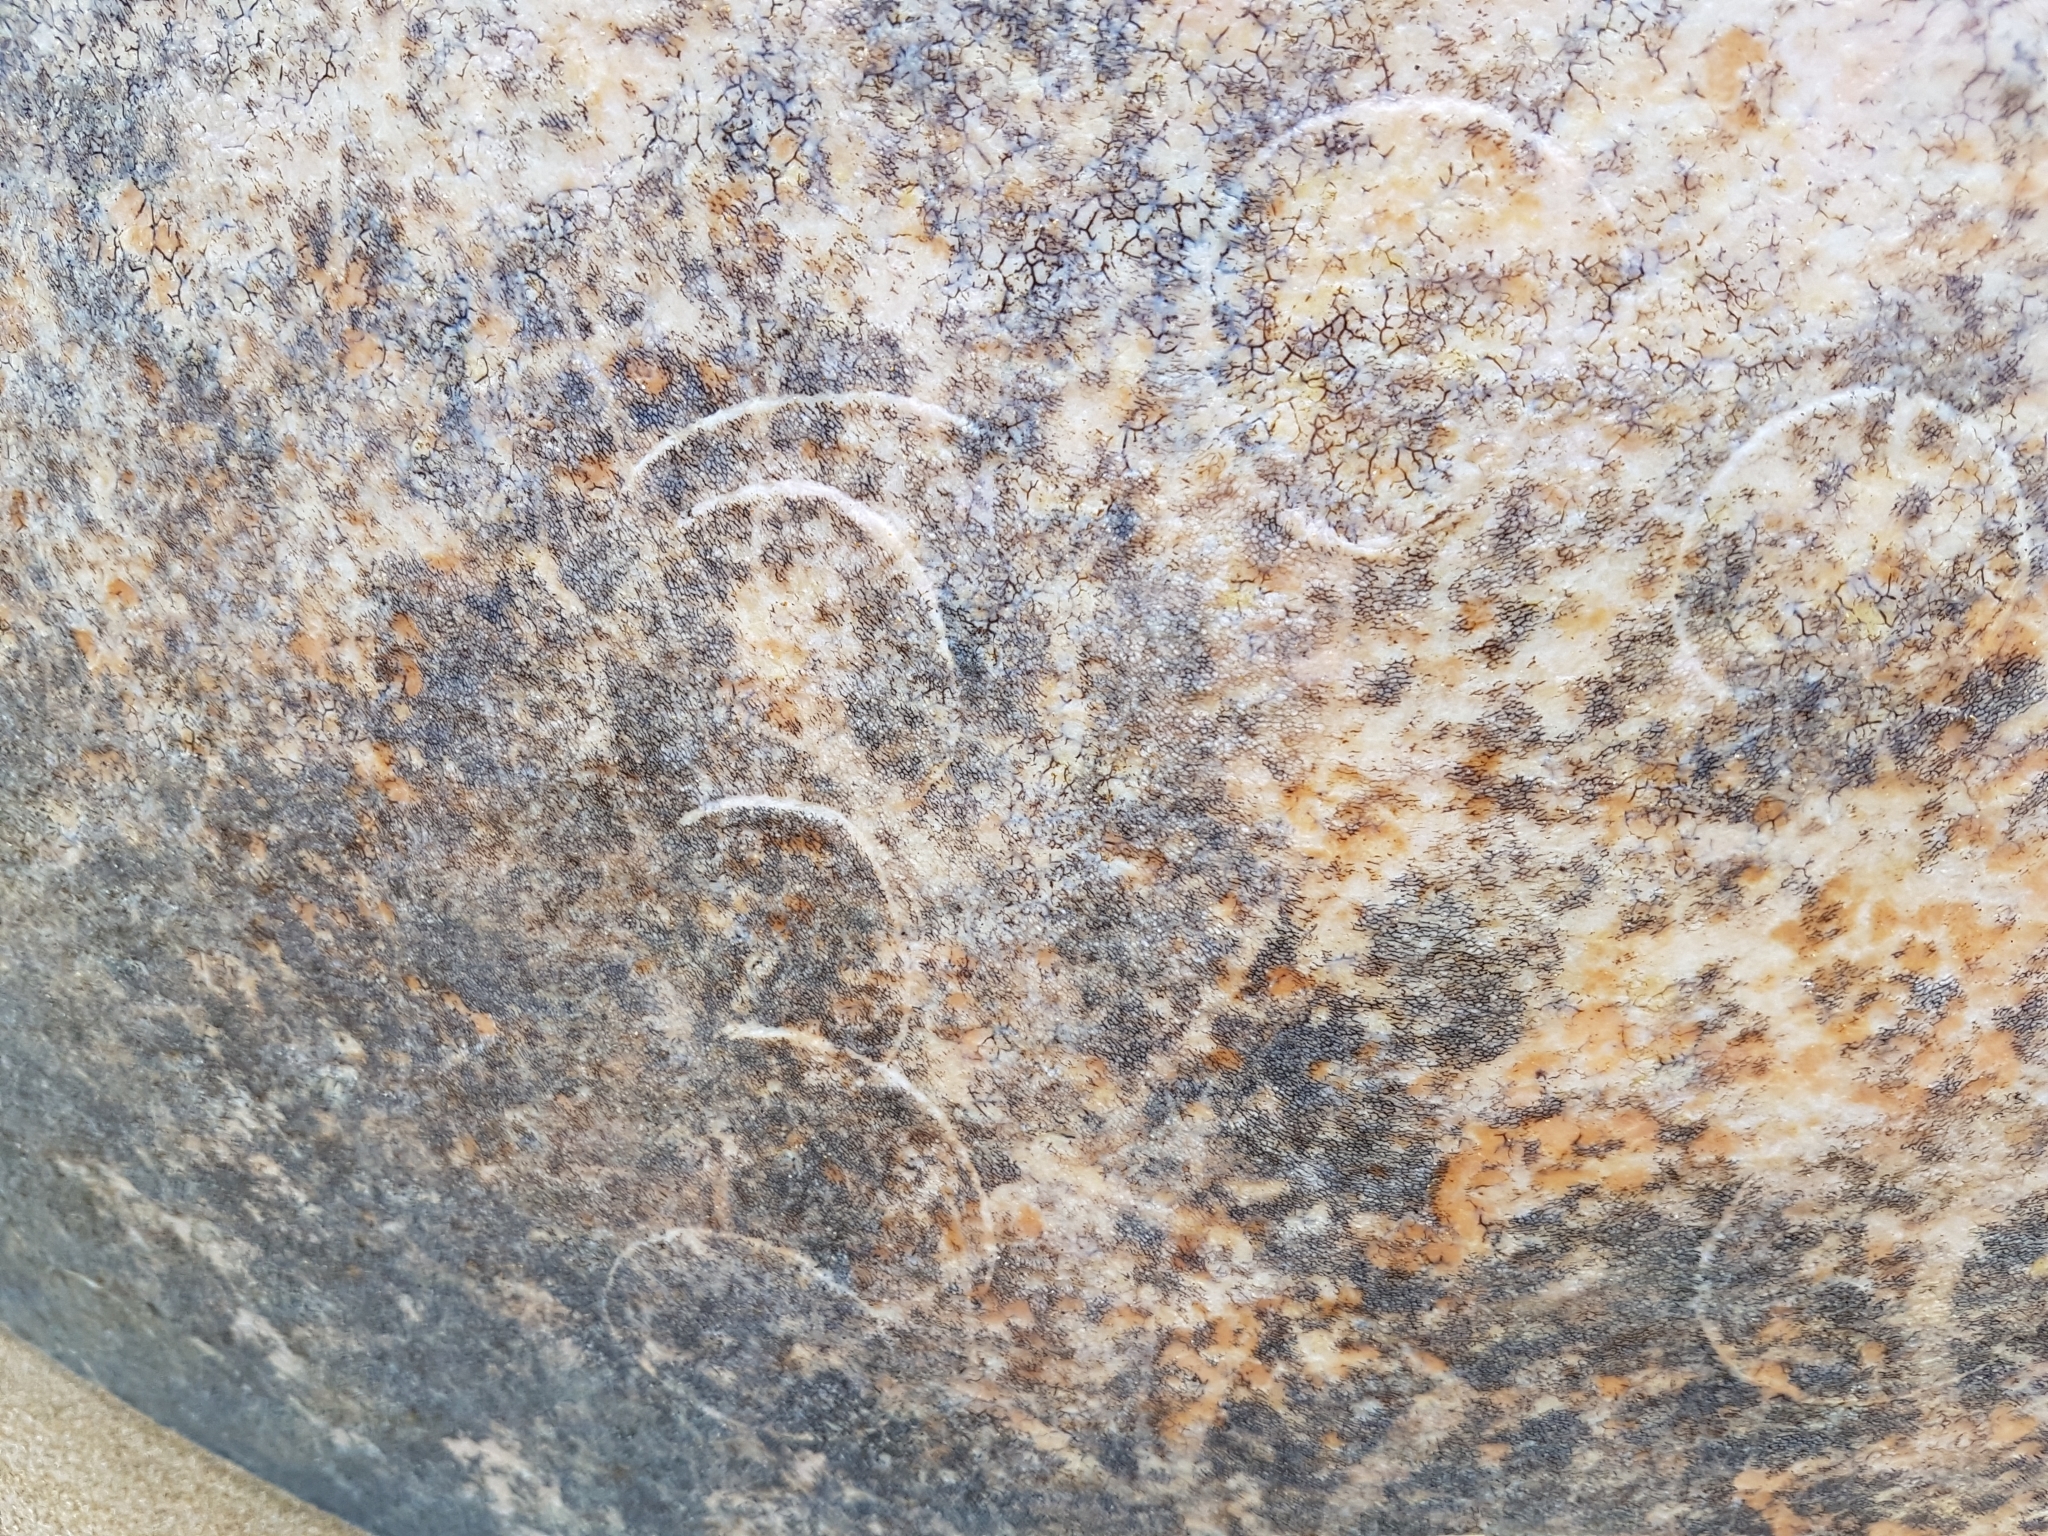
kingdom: Animalia
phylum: Chordata
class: Mammalia
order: Cetacea
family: Physeteridae
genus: Physeter
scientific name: Physeter macrocephalus
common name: Sperm whale
